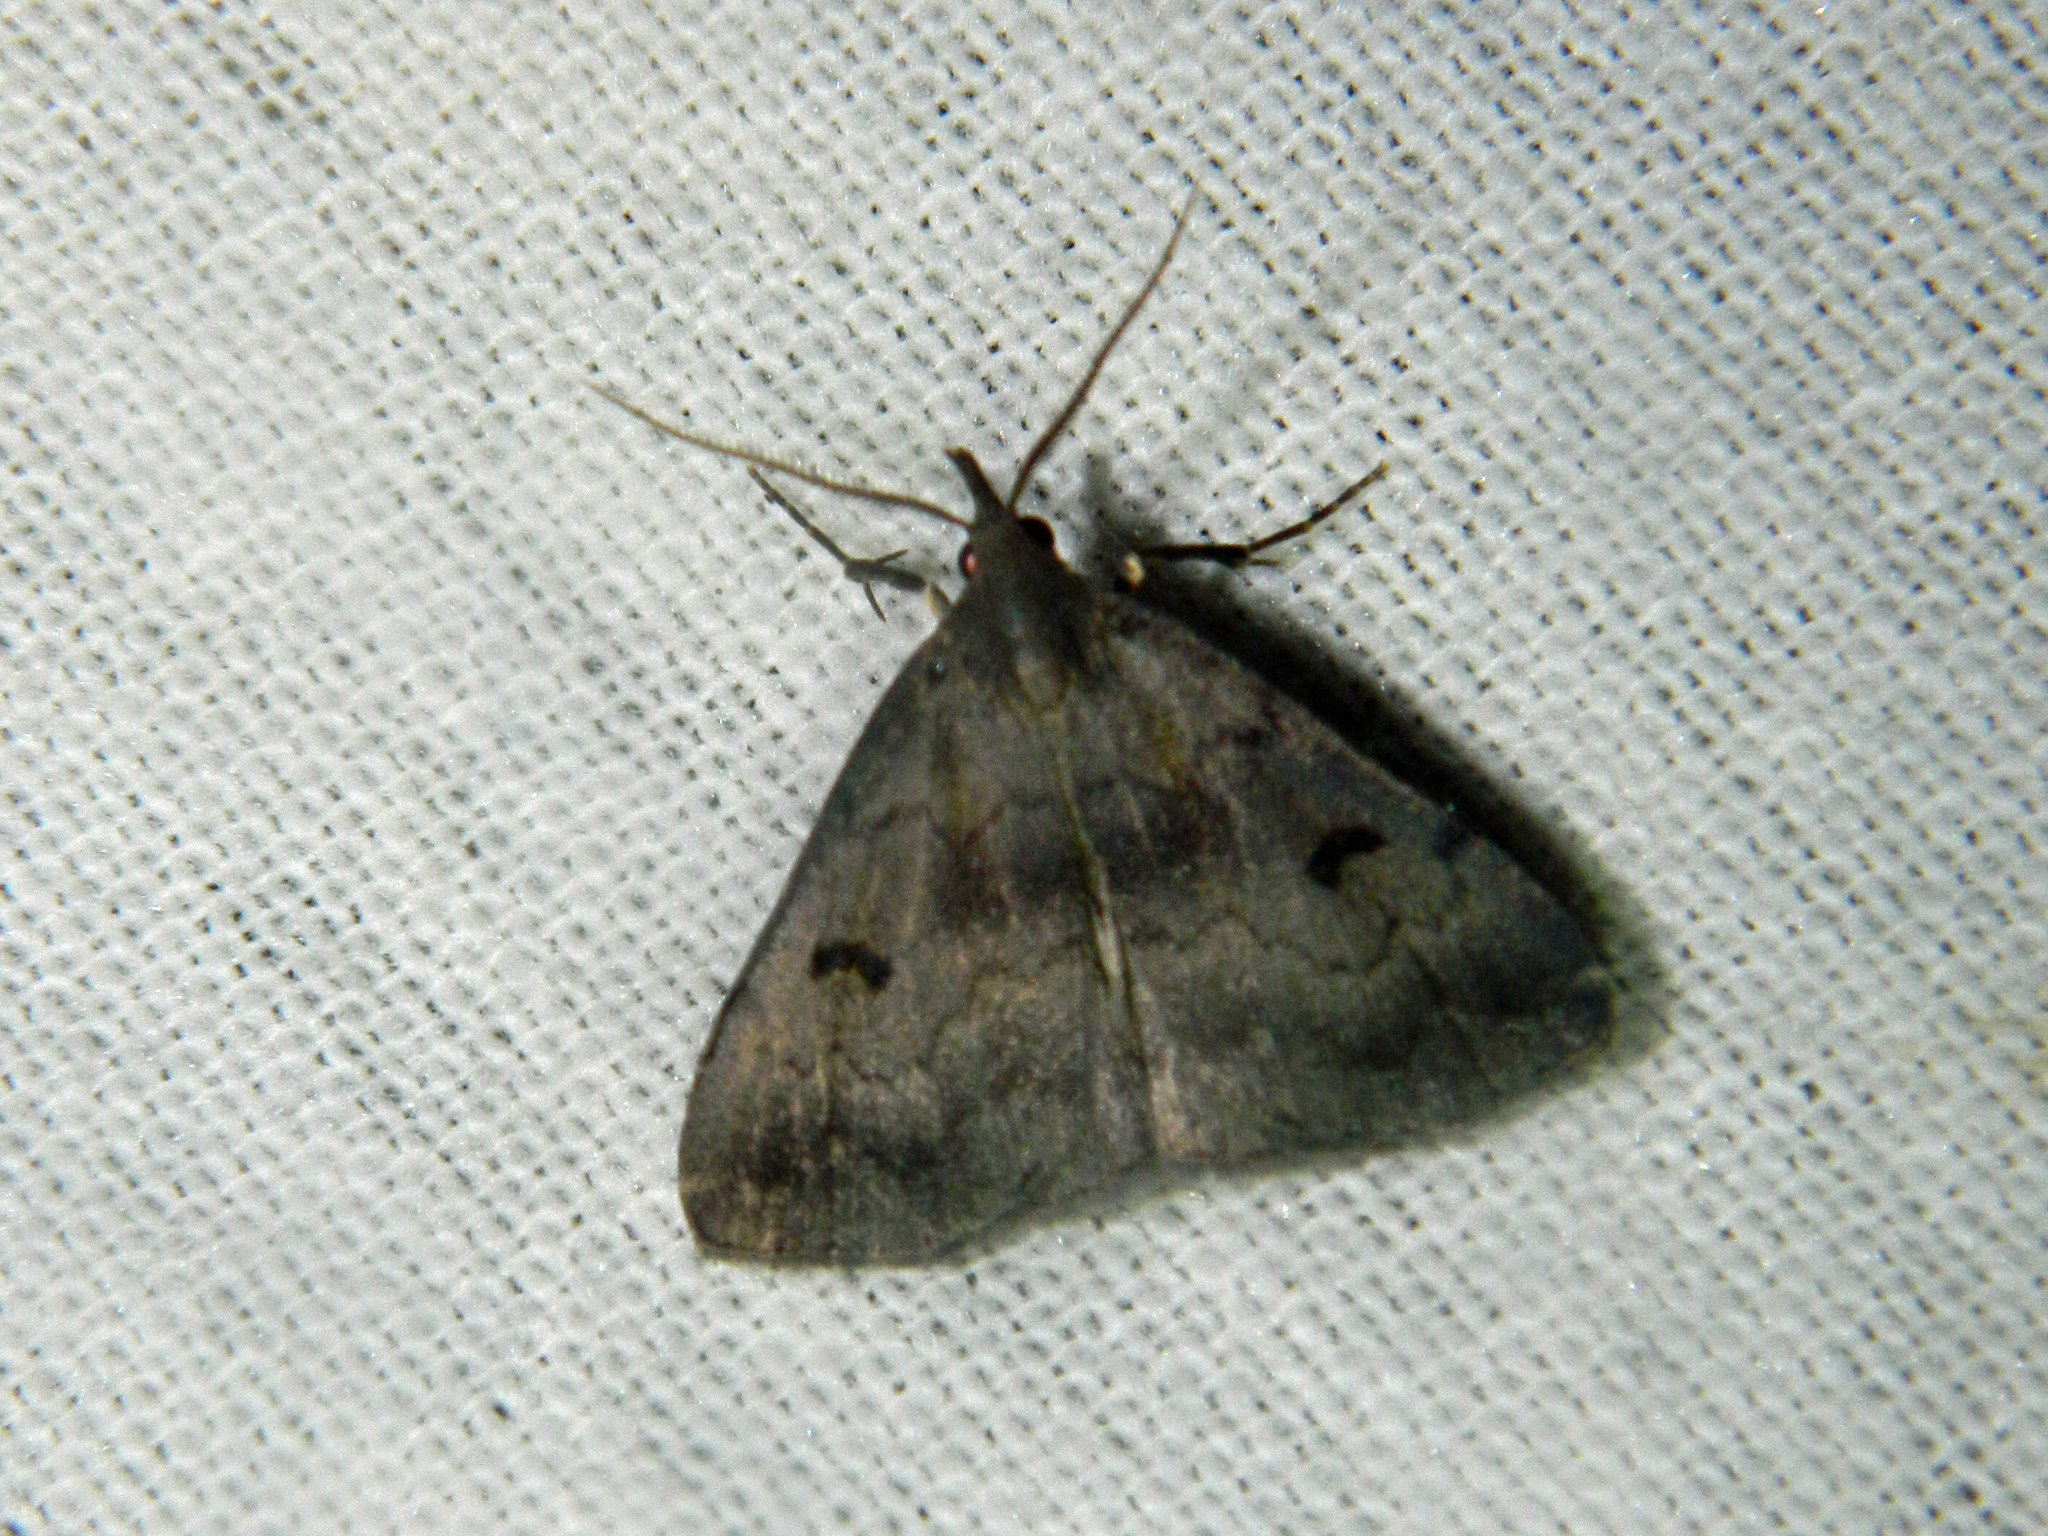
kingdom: Animalia
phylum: Arthropoda
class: Insecta
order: Lepidoptera
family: Erebidae
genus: Phalaenostola
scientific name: Phalaenostola hanhami
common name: Hanham's owlet
